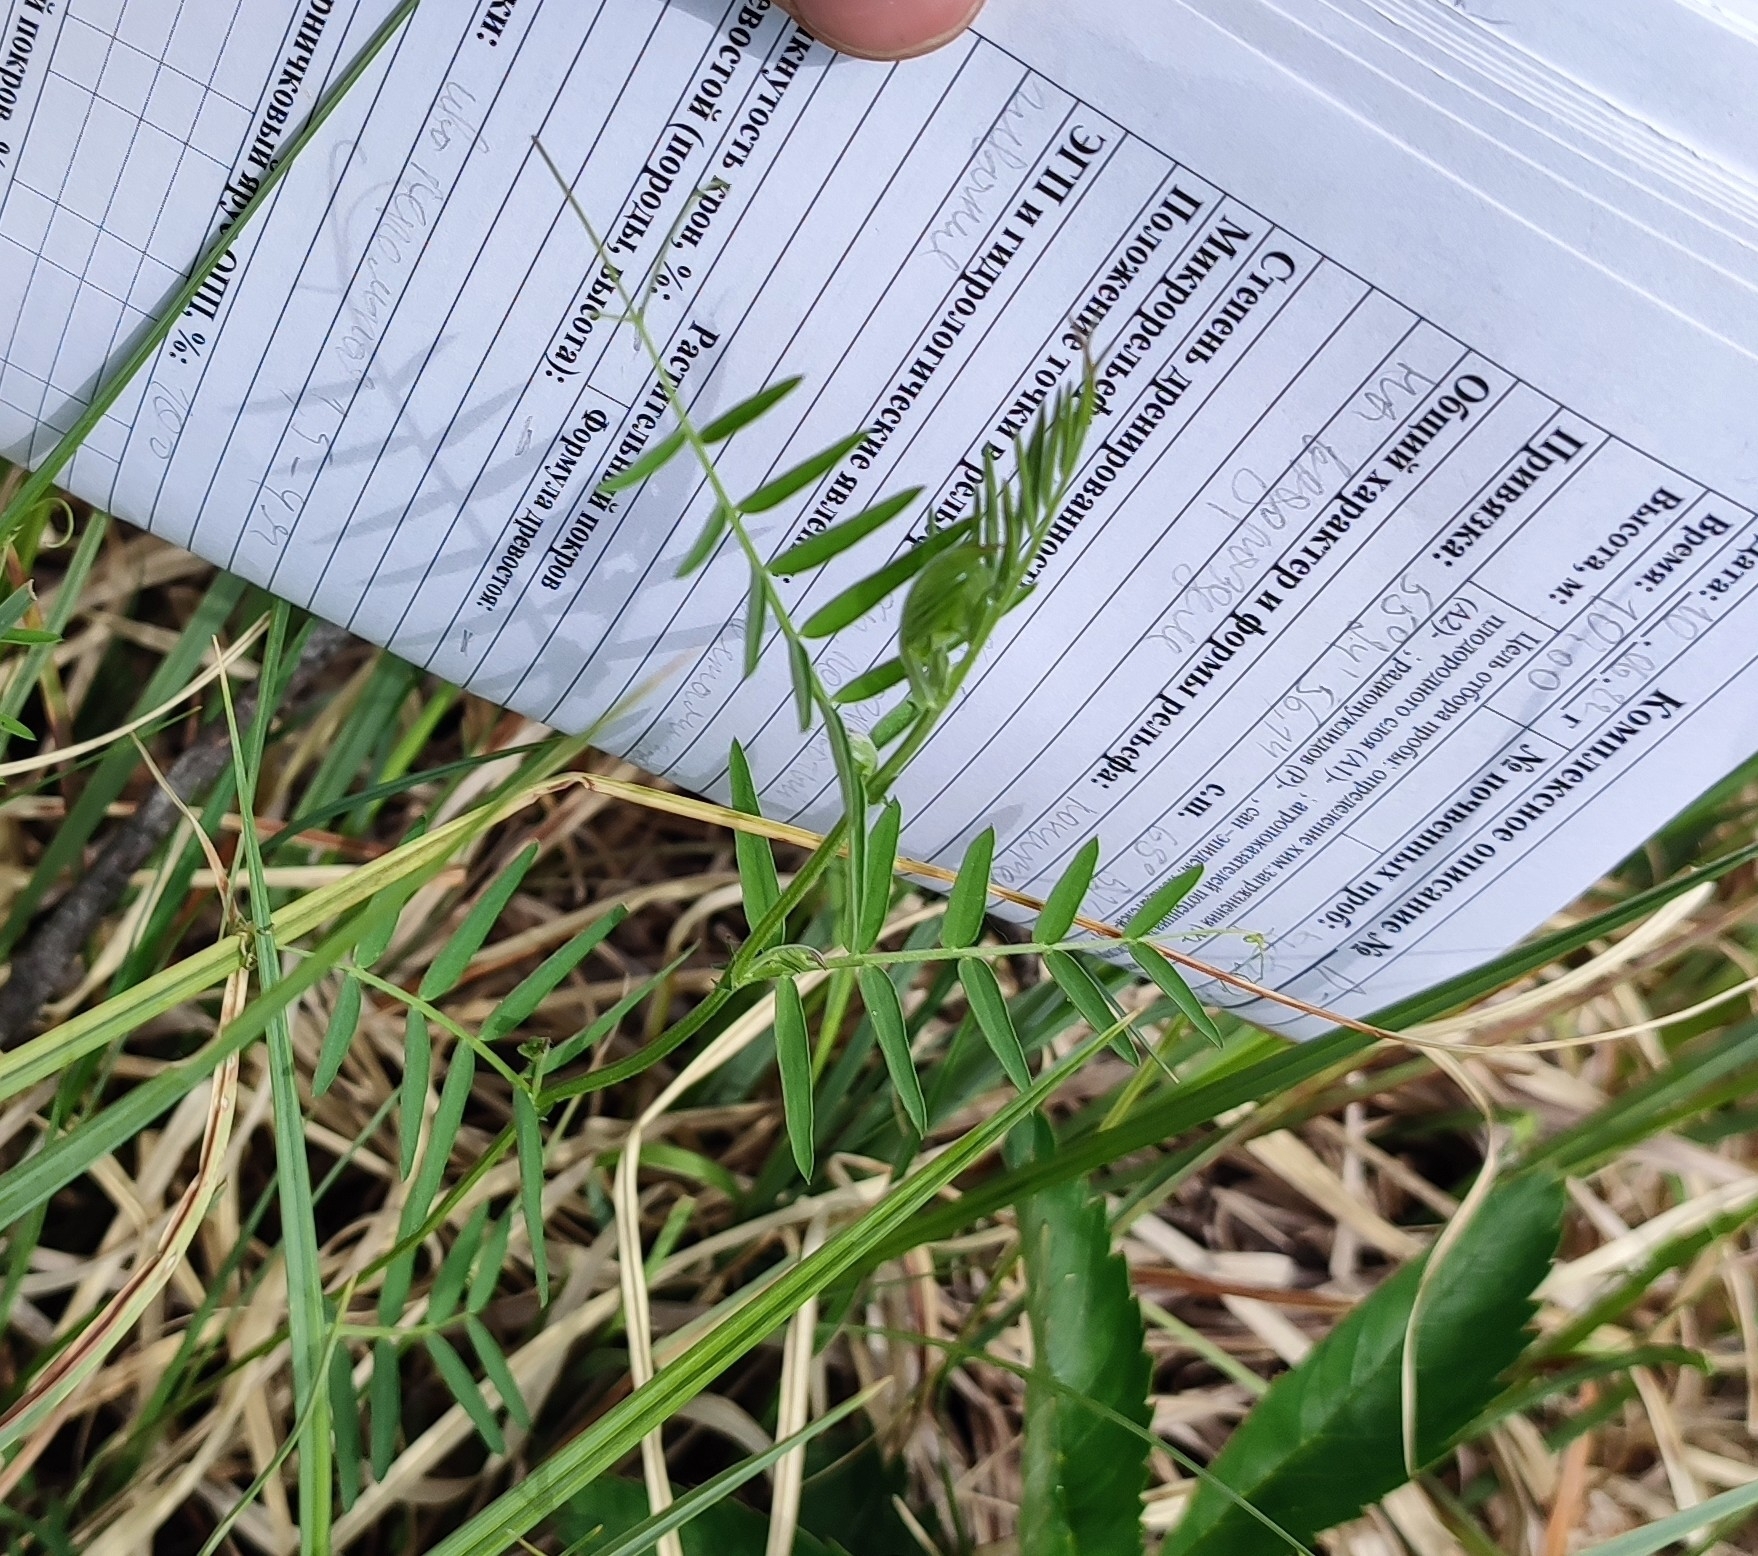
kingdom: Plantae
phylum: Tracheophyta
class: Magnoliopsida
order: Fabales
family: Fabaceae
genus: Vicia
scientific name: Vicia cracca
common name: Bird vetch
